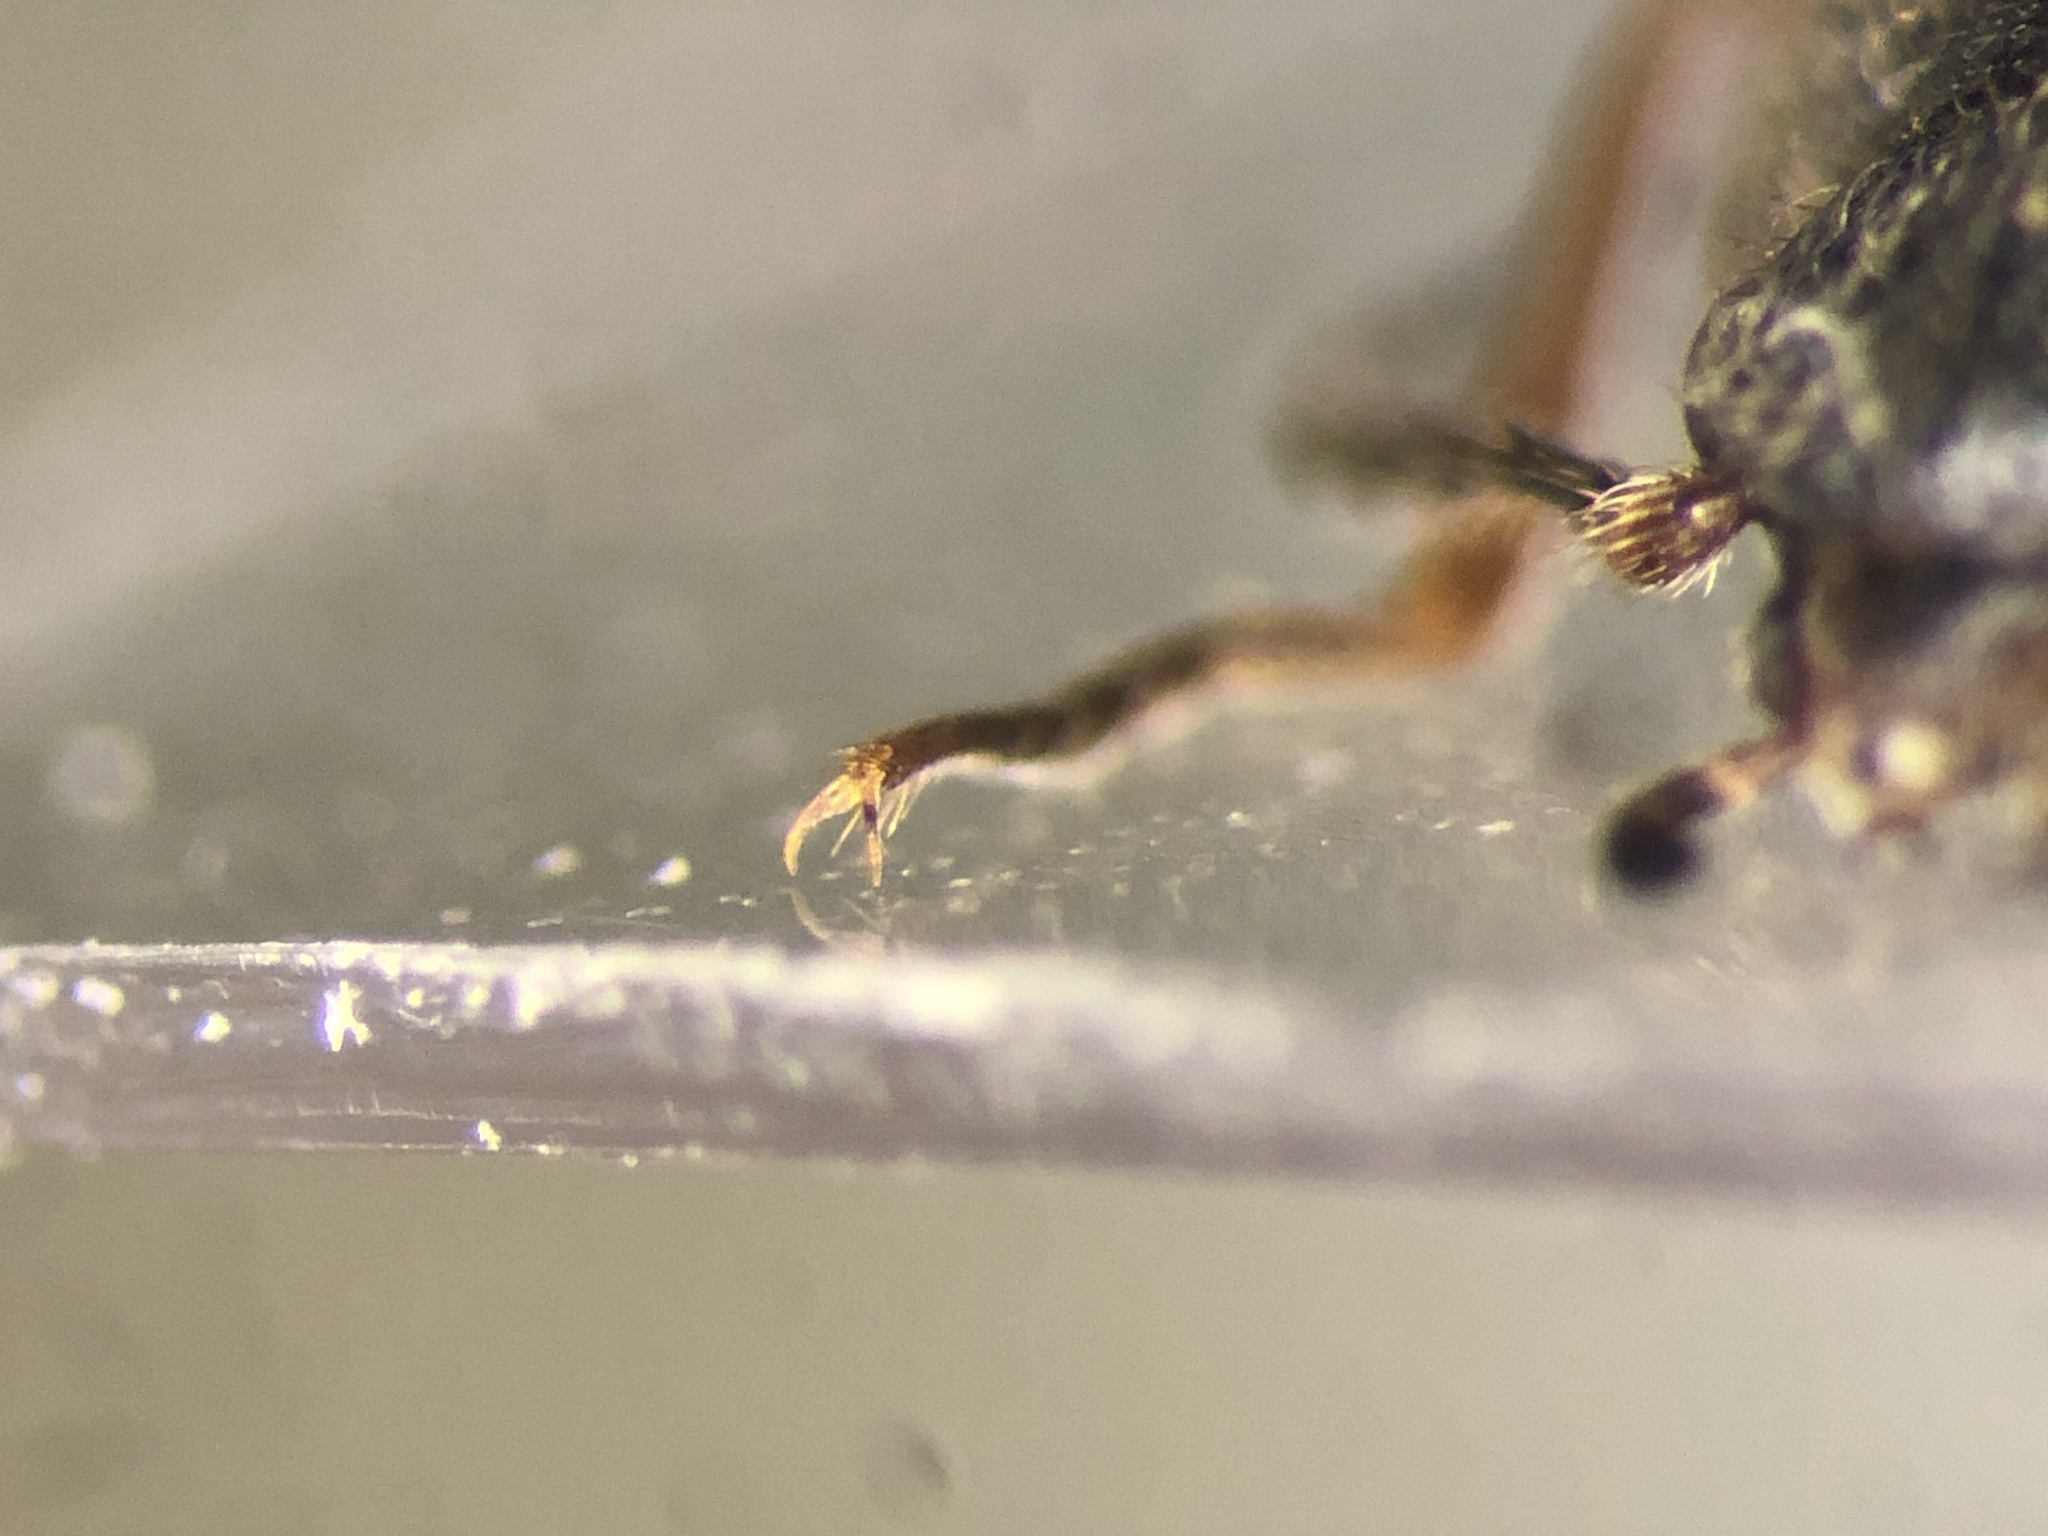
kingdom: Animalia
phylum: Arthropoda
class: Insecta
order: Coleoptera
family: Elateridae
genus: Liotrichus
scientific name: Liotrichus falsificus
